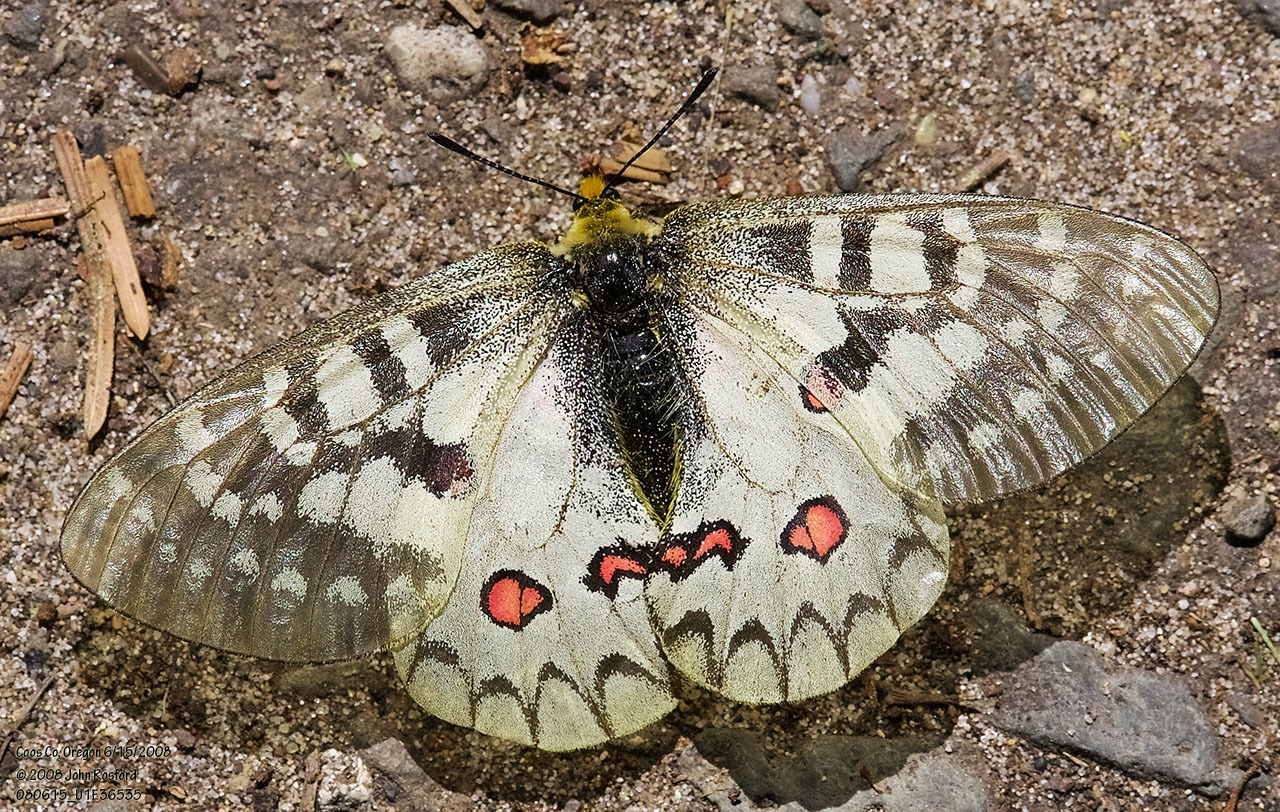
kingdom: Animalia
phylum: Arthropoda
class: Insecta
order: Lepidoptera
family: Papilionidae
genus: Parnassius
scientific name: Parnassius clodius
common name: American apollo
